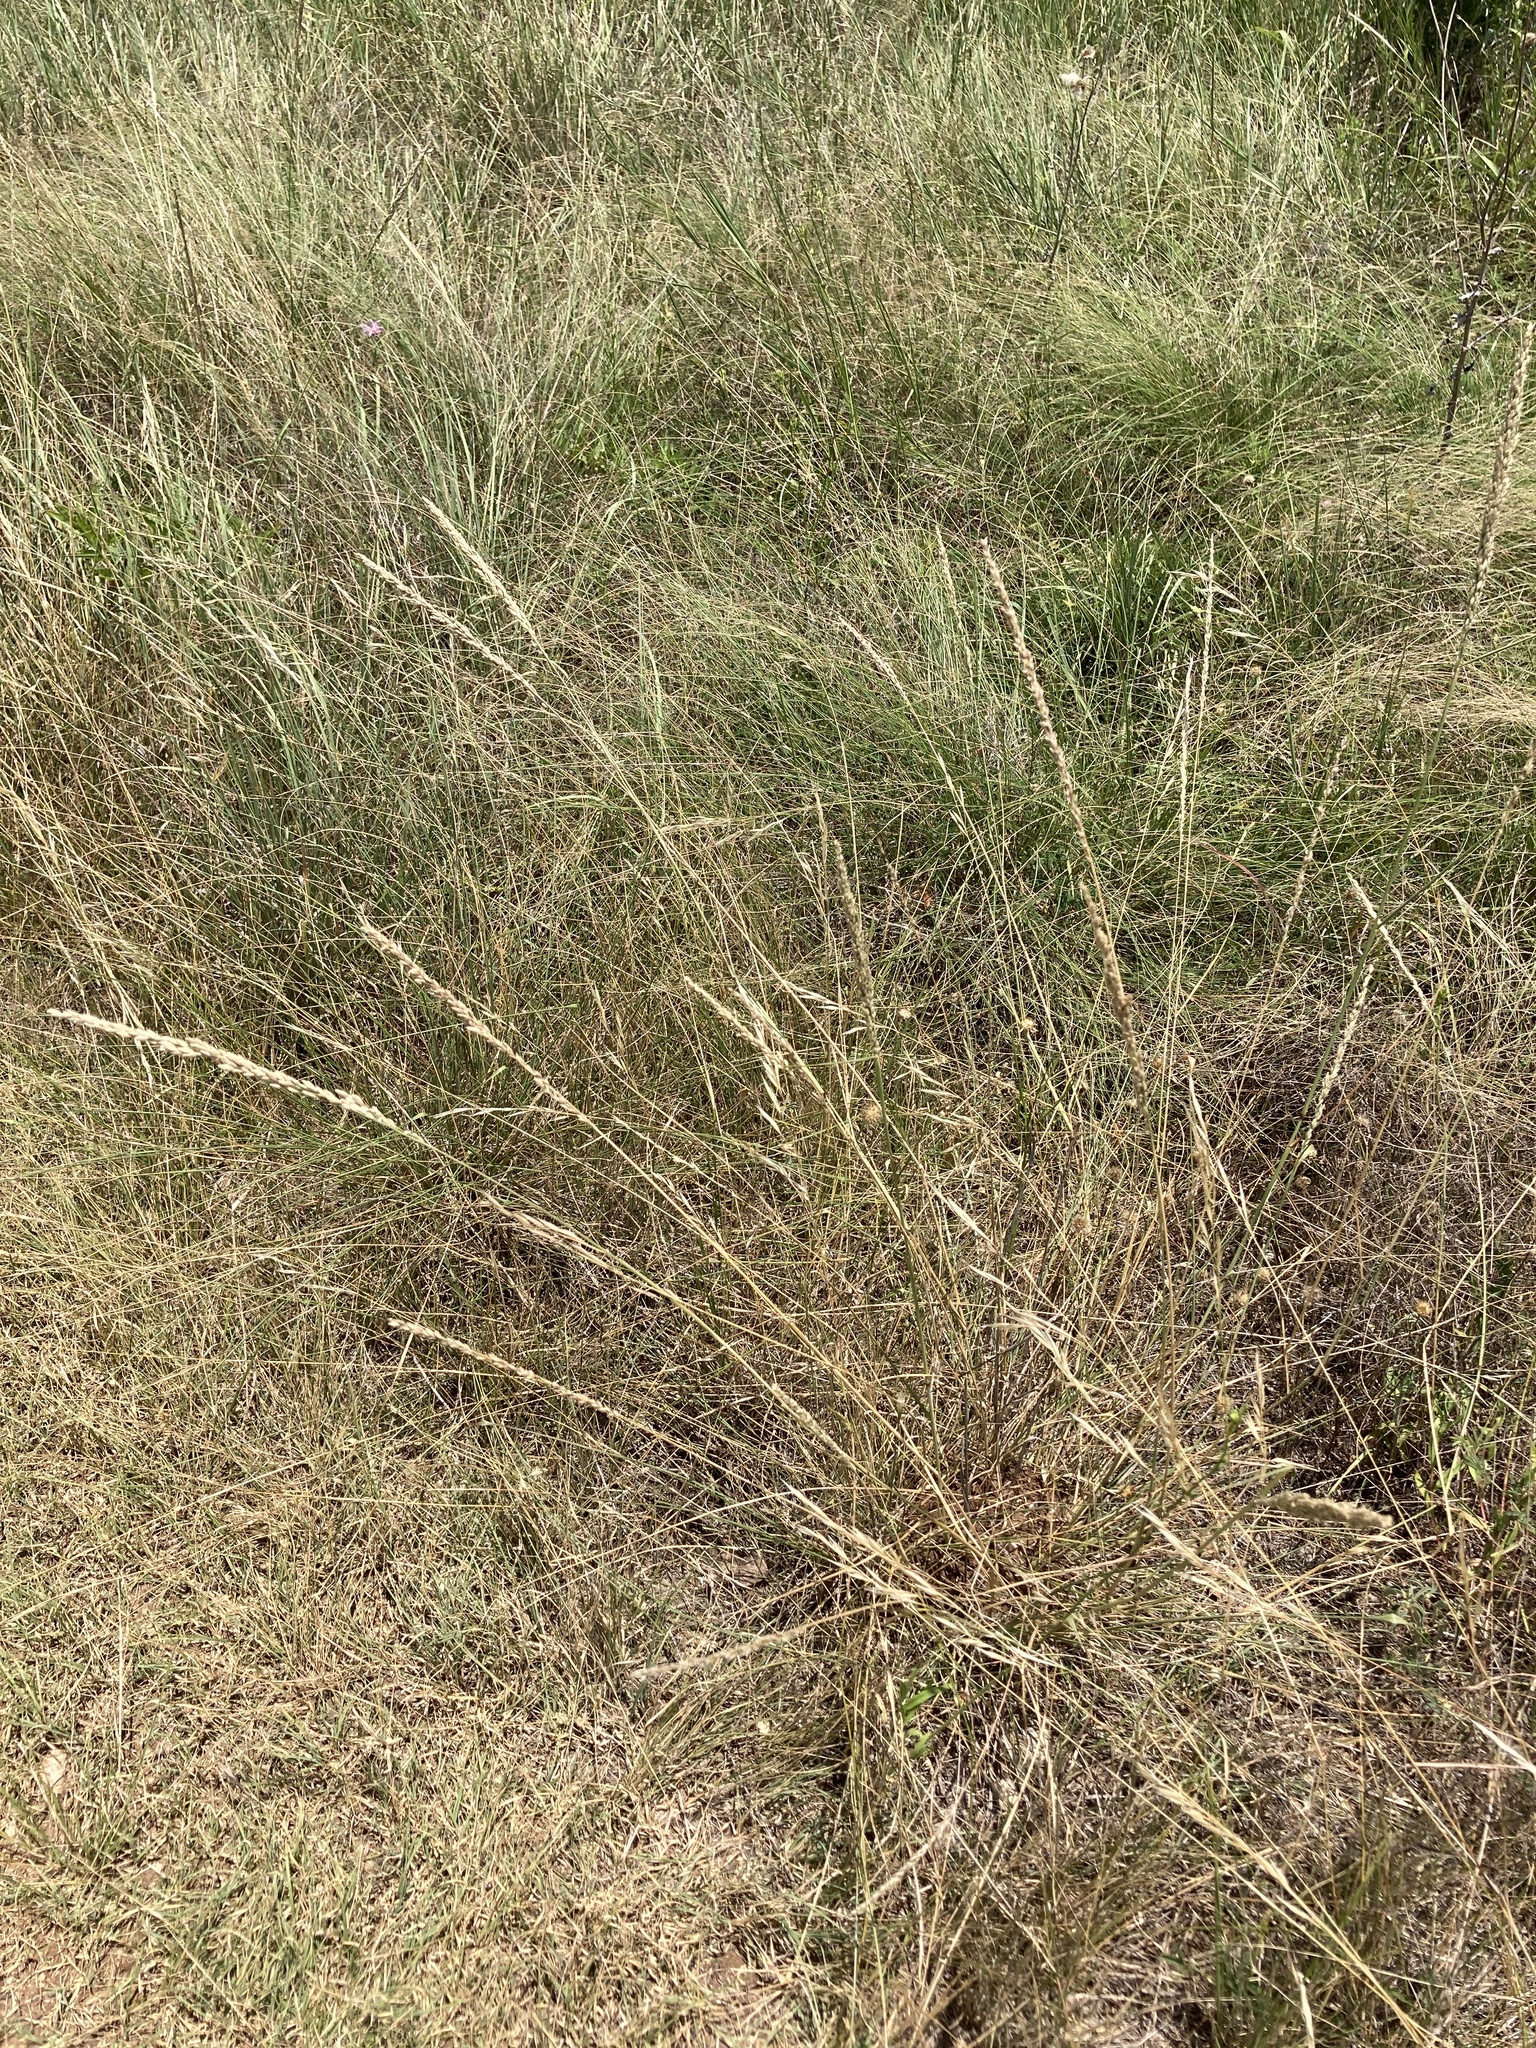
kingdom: Plantae
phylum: Tracheophyta
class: Liliopsida
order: Poales
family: Poaceae
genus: Tridens
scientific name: Tridens albescens
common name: White tridens
